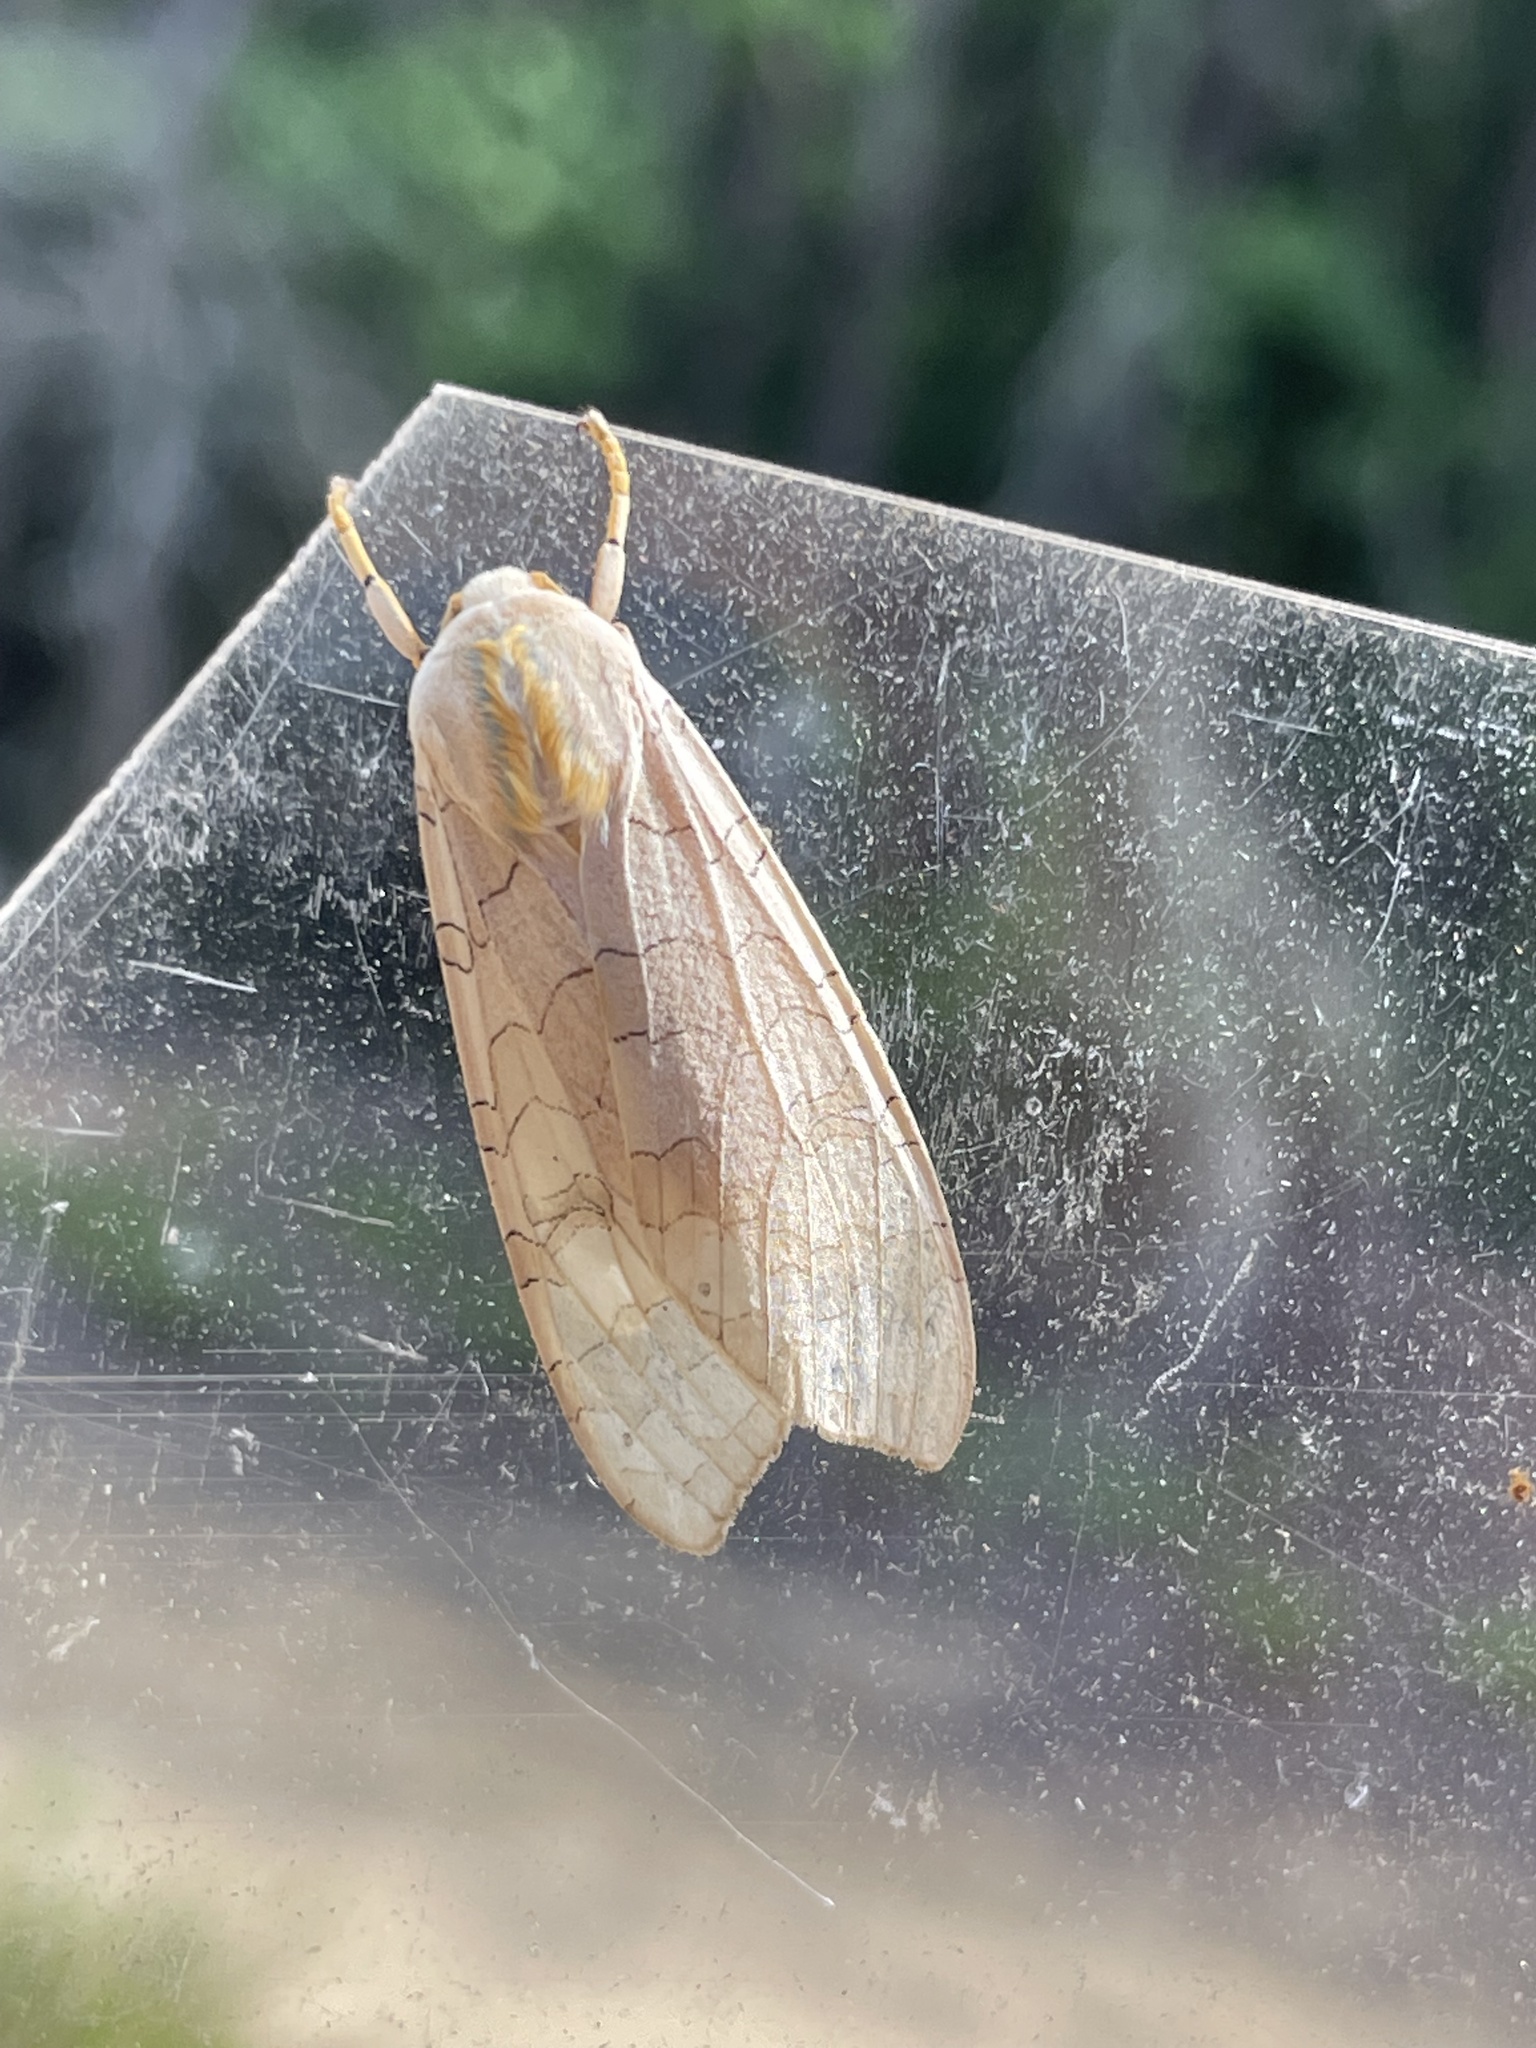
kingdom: Animalia
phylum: Arthropoda
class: Insecta
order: Lepidoptera
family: Erebidae
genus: Halysidota
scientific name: Halysidota
